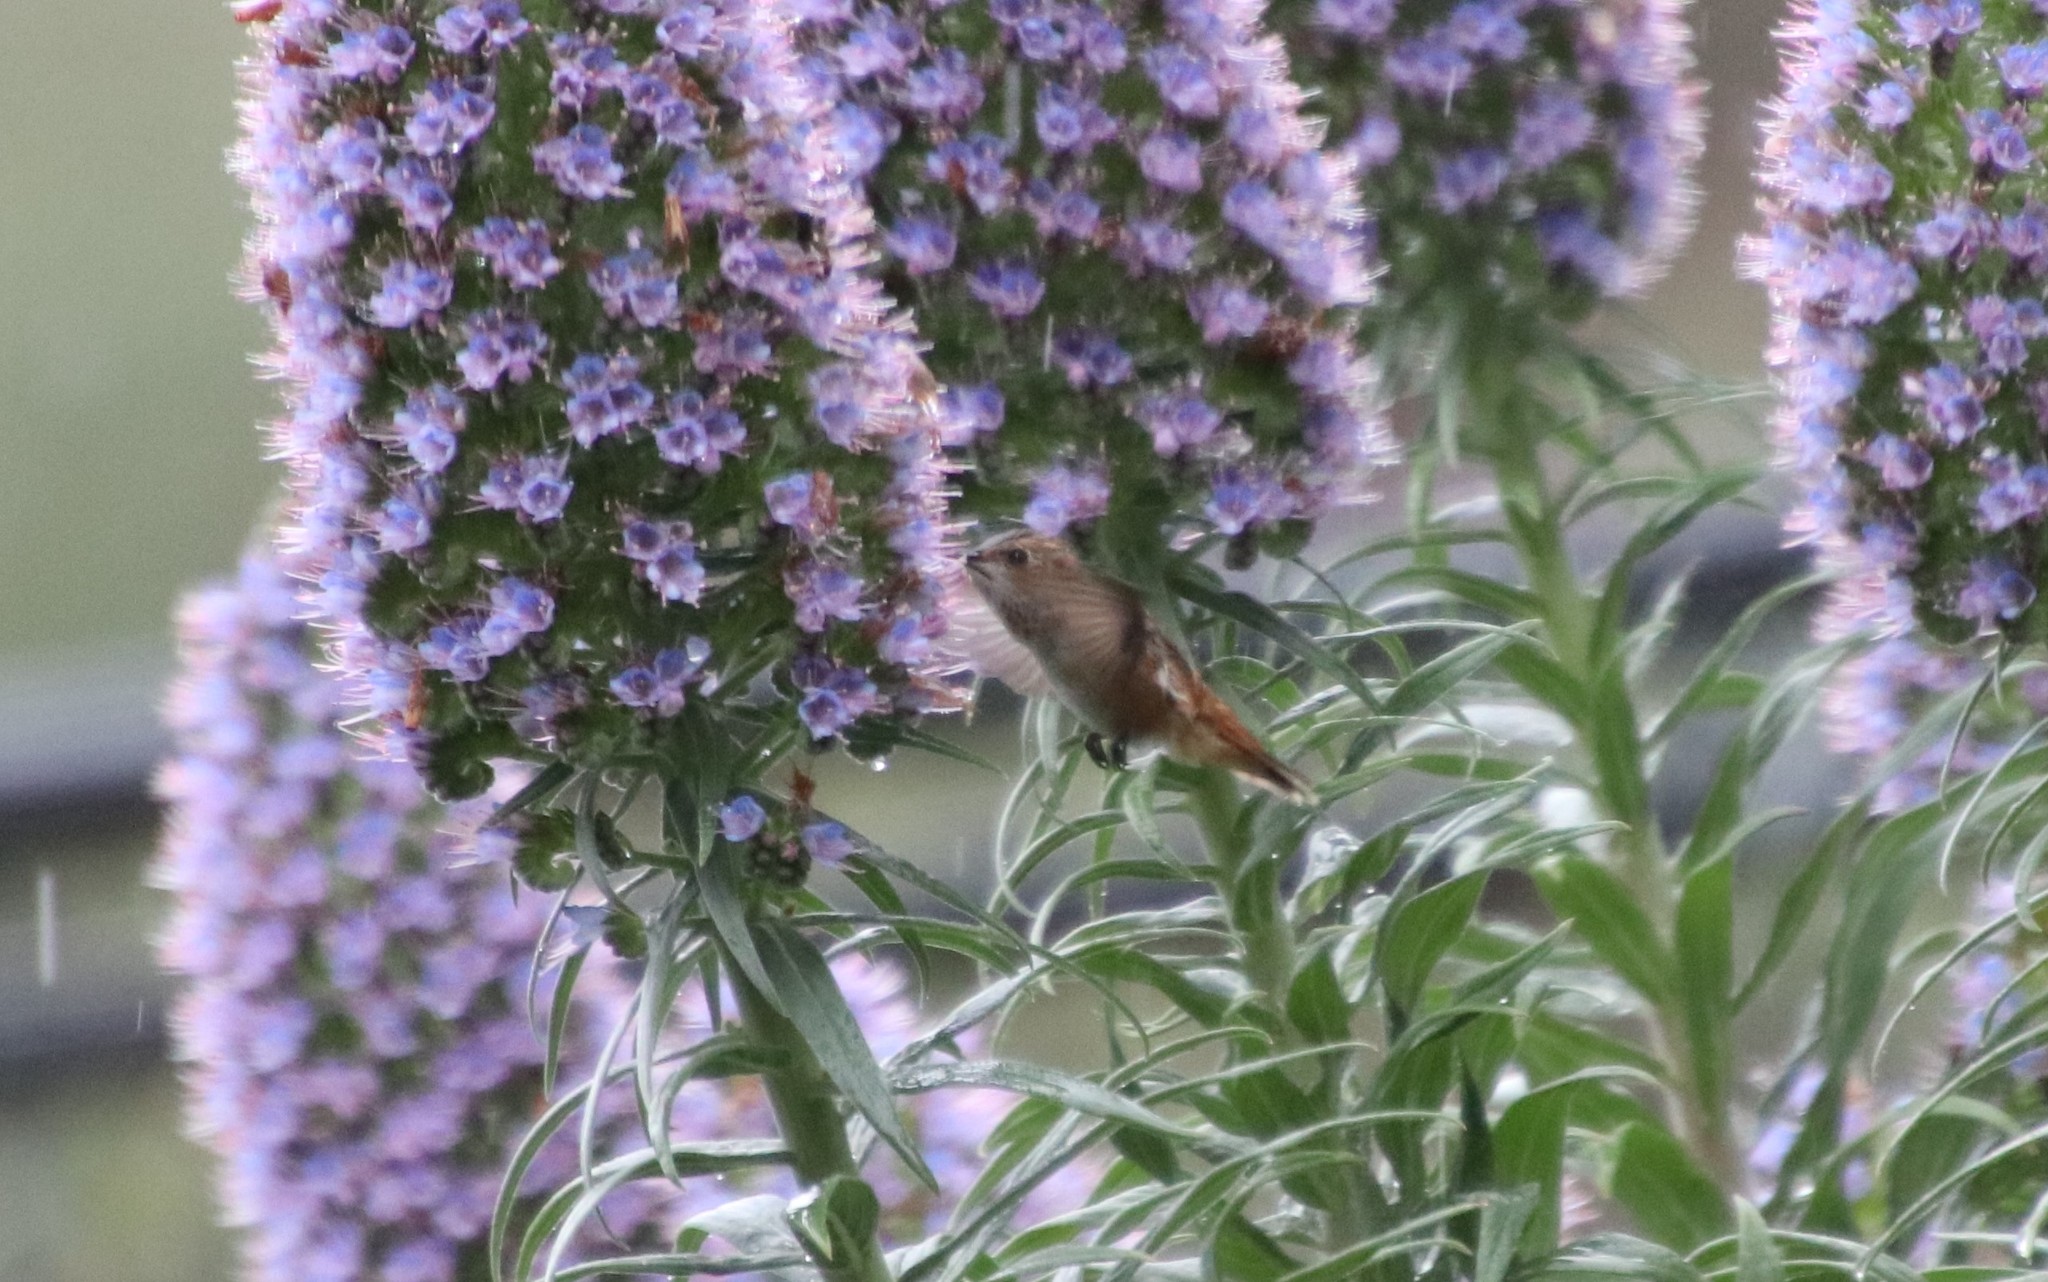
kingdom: Animalia
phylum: Chordata
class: Aves
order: Apodiformes
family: Trochilidae
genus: Selasphorus
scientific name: Selasphorus
